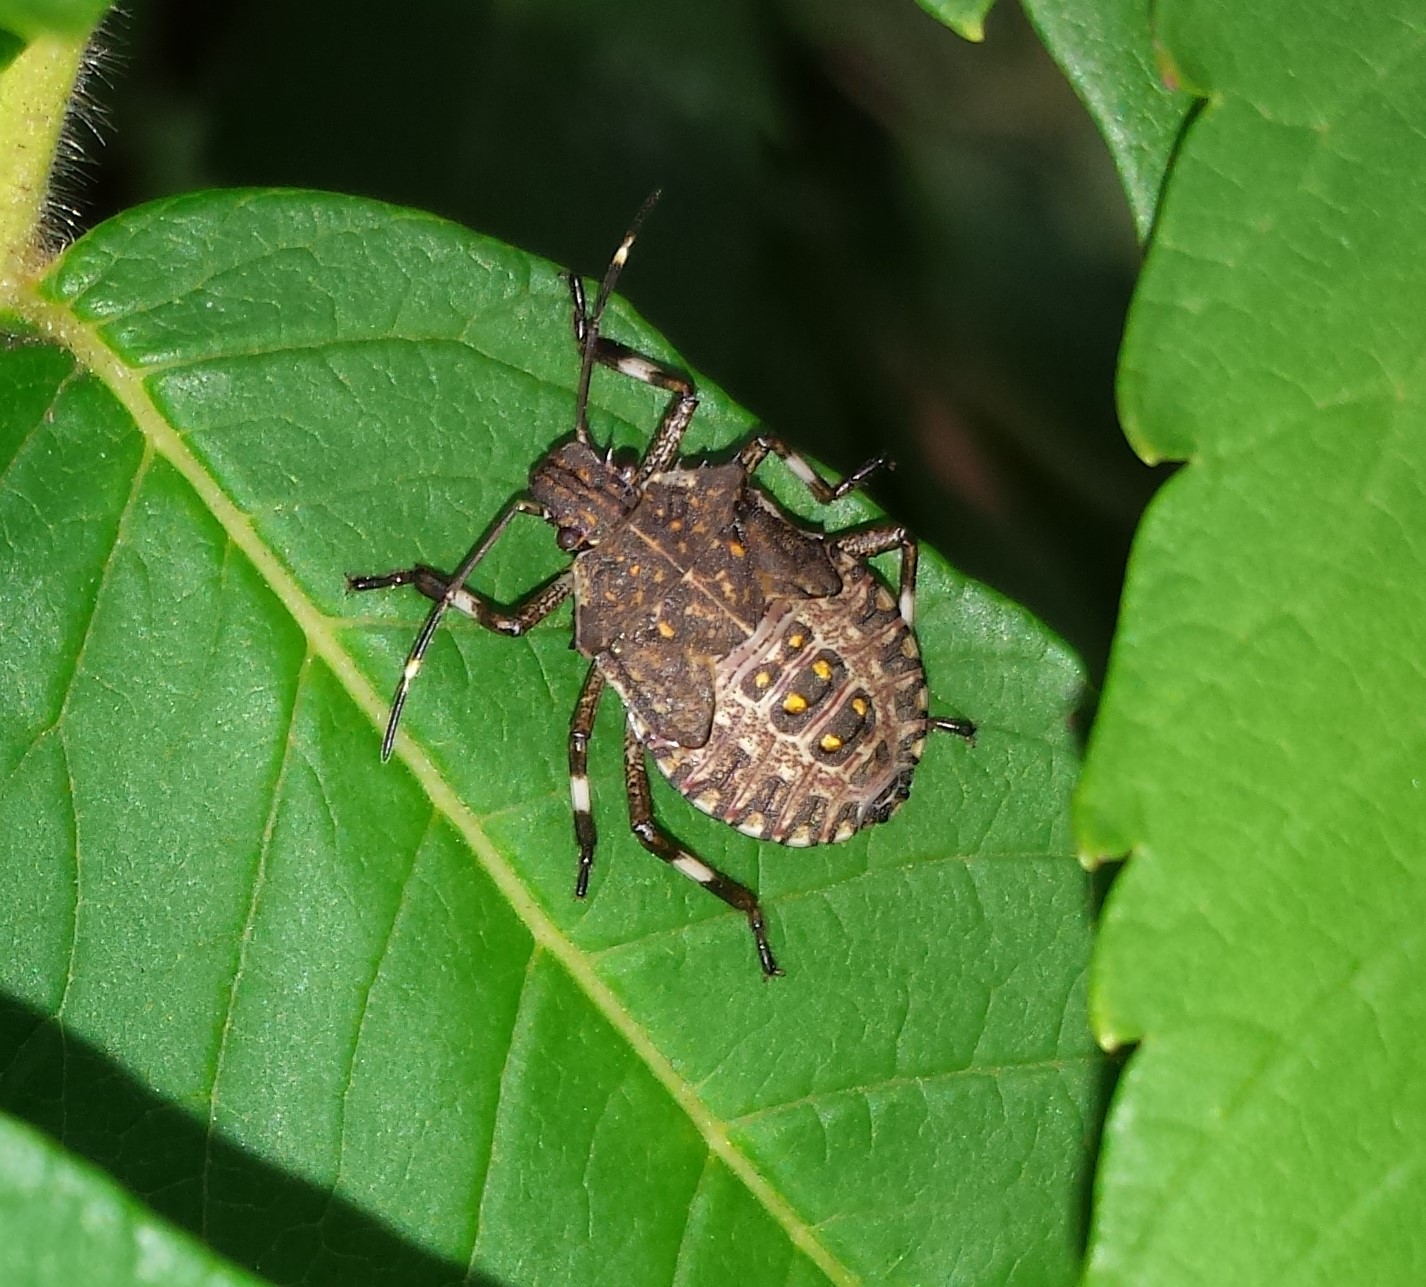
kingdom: Animalia
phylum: Arthropoda
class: Insecta
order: Hemiptera
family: Pentatomidae
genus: Halyomorpha
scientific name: Halyomorpha halys
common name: Brown marmorated stink bug
